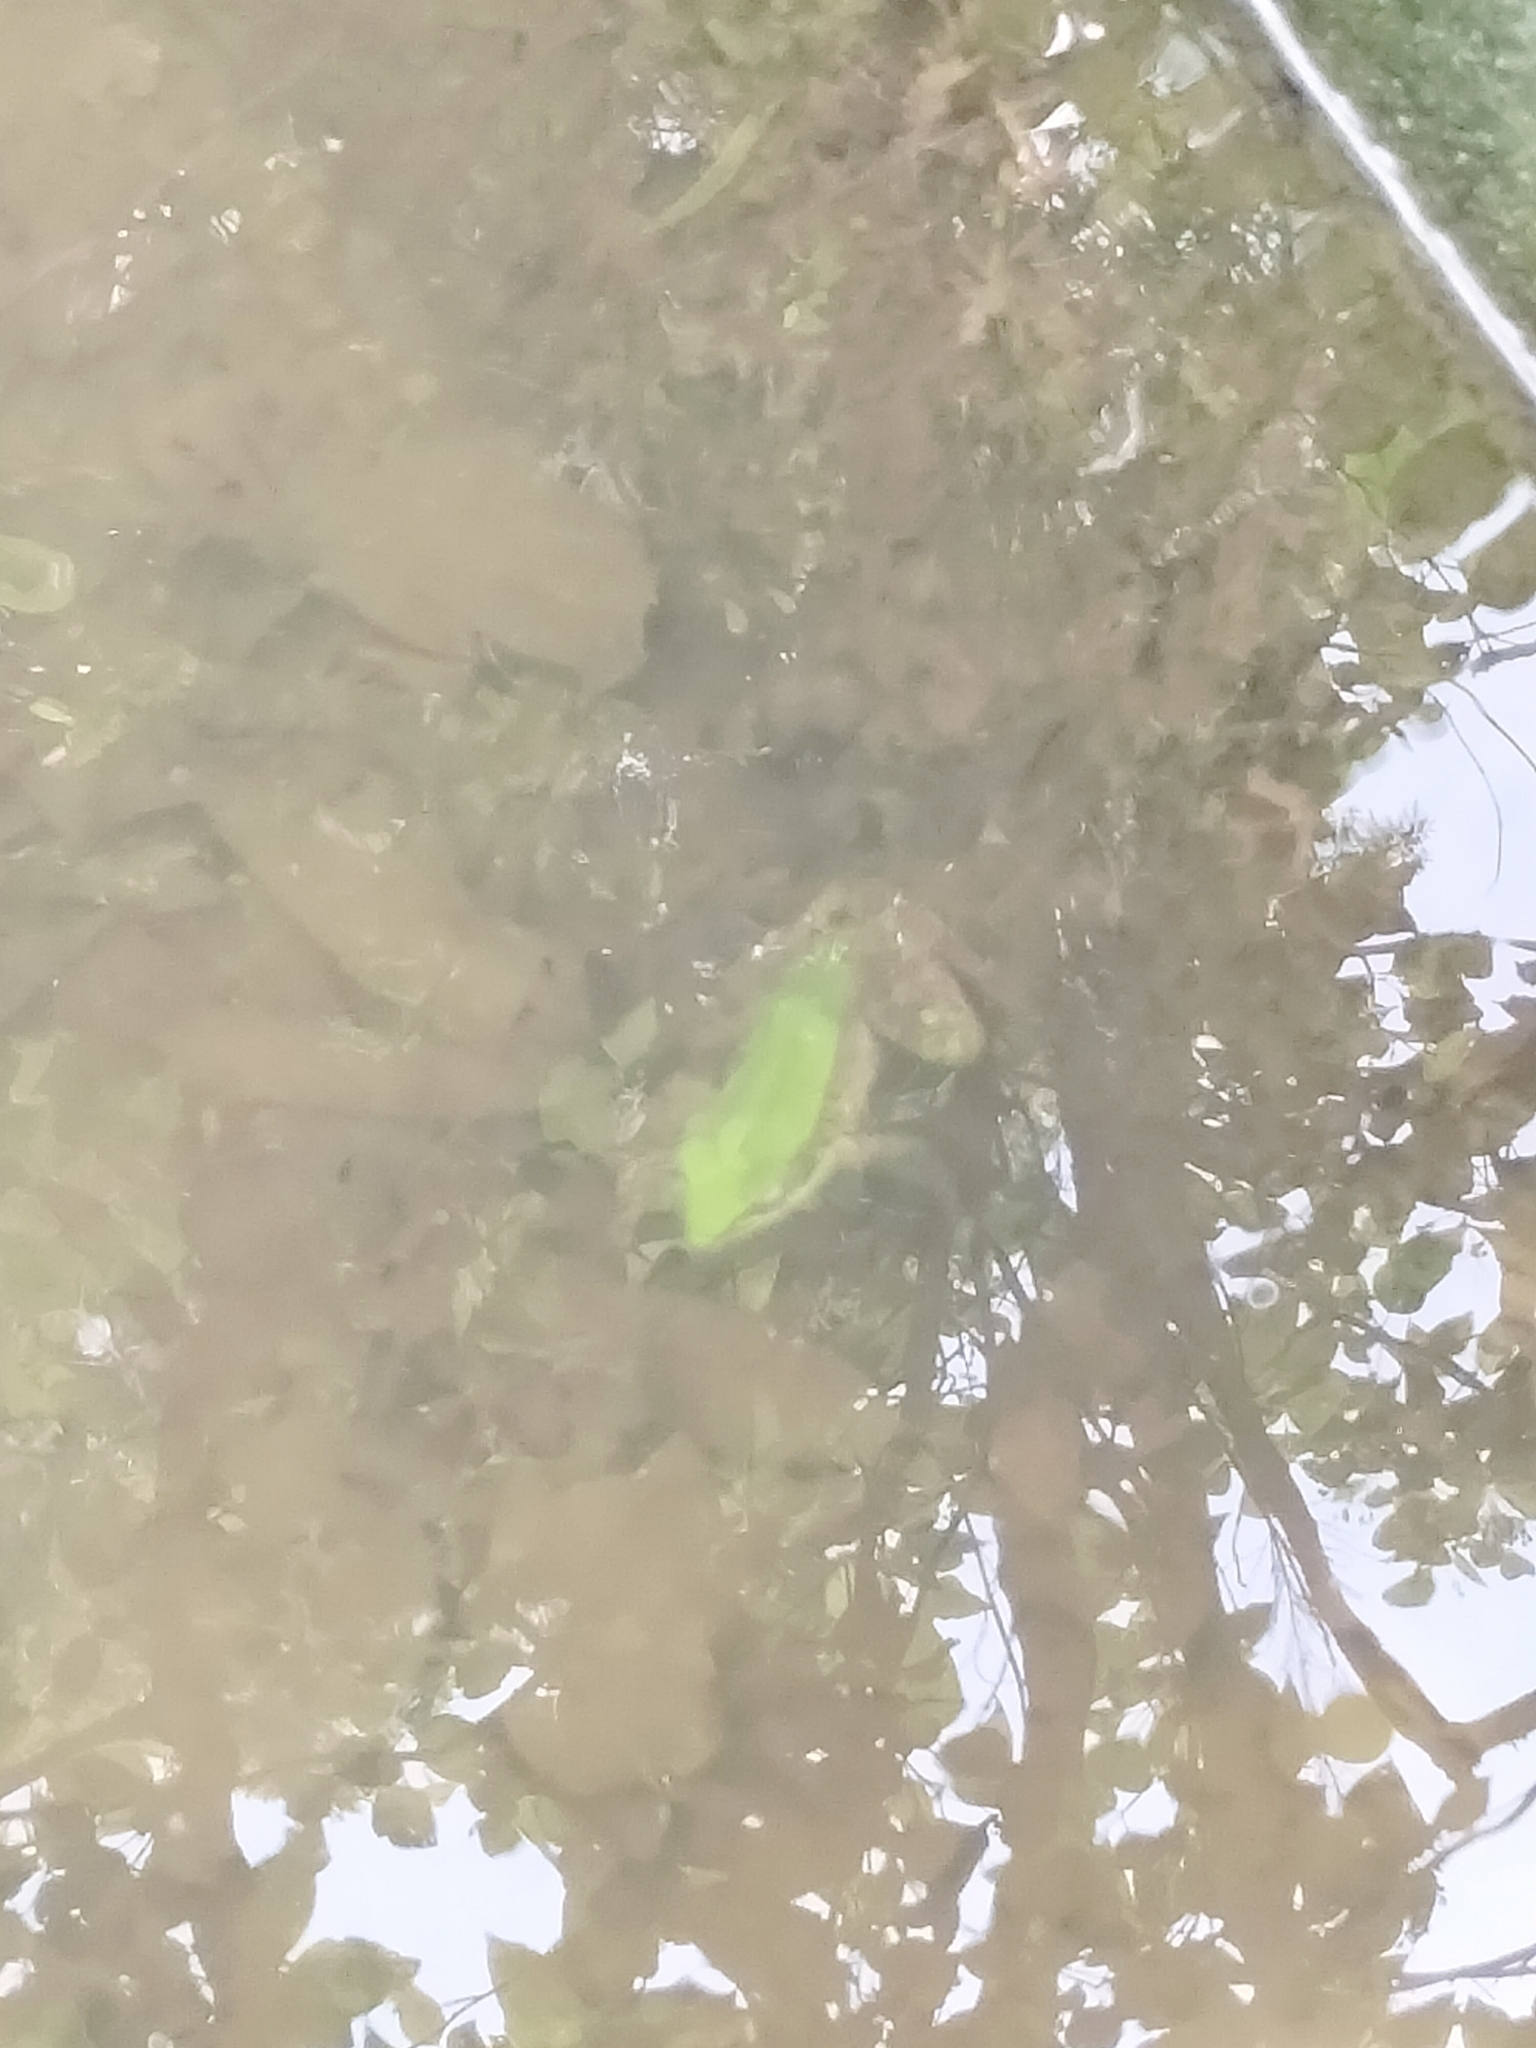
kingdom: Animalia
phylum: Chordata
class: Amphibia
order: Anura
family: Ranidae
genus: Odorrana
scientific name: Odorrana swinhoana
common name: Bangkimtsing frog
